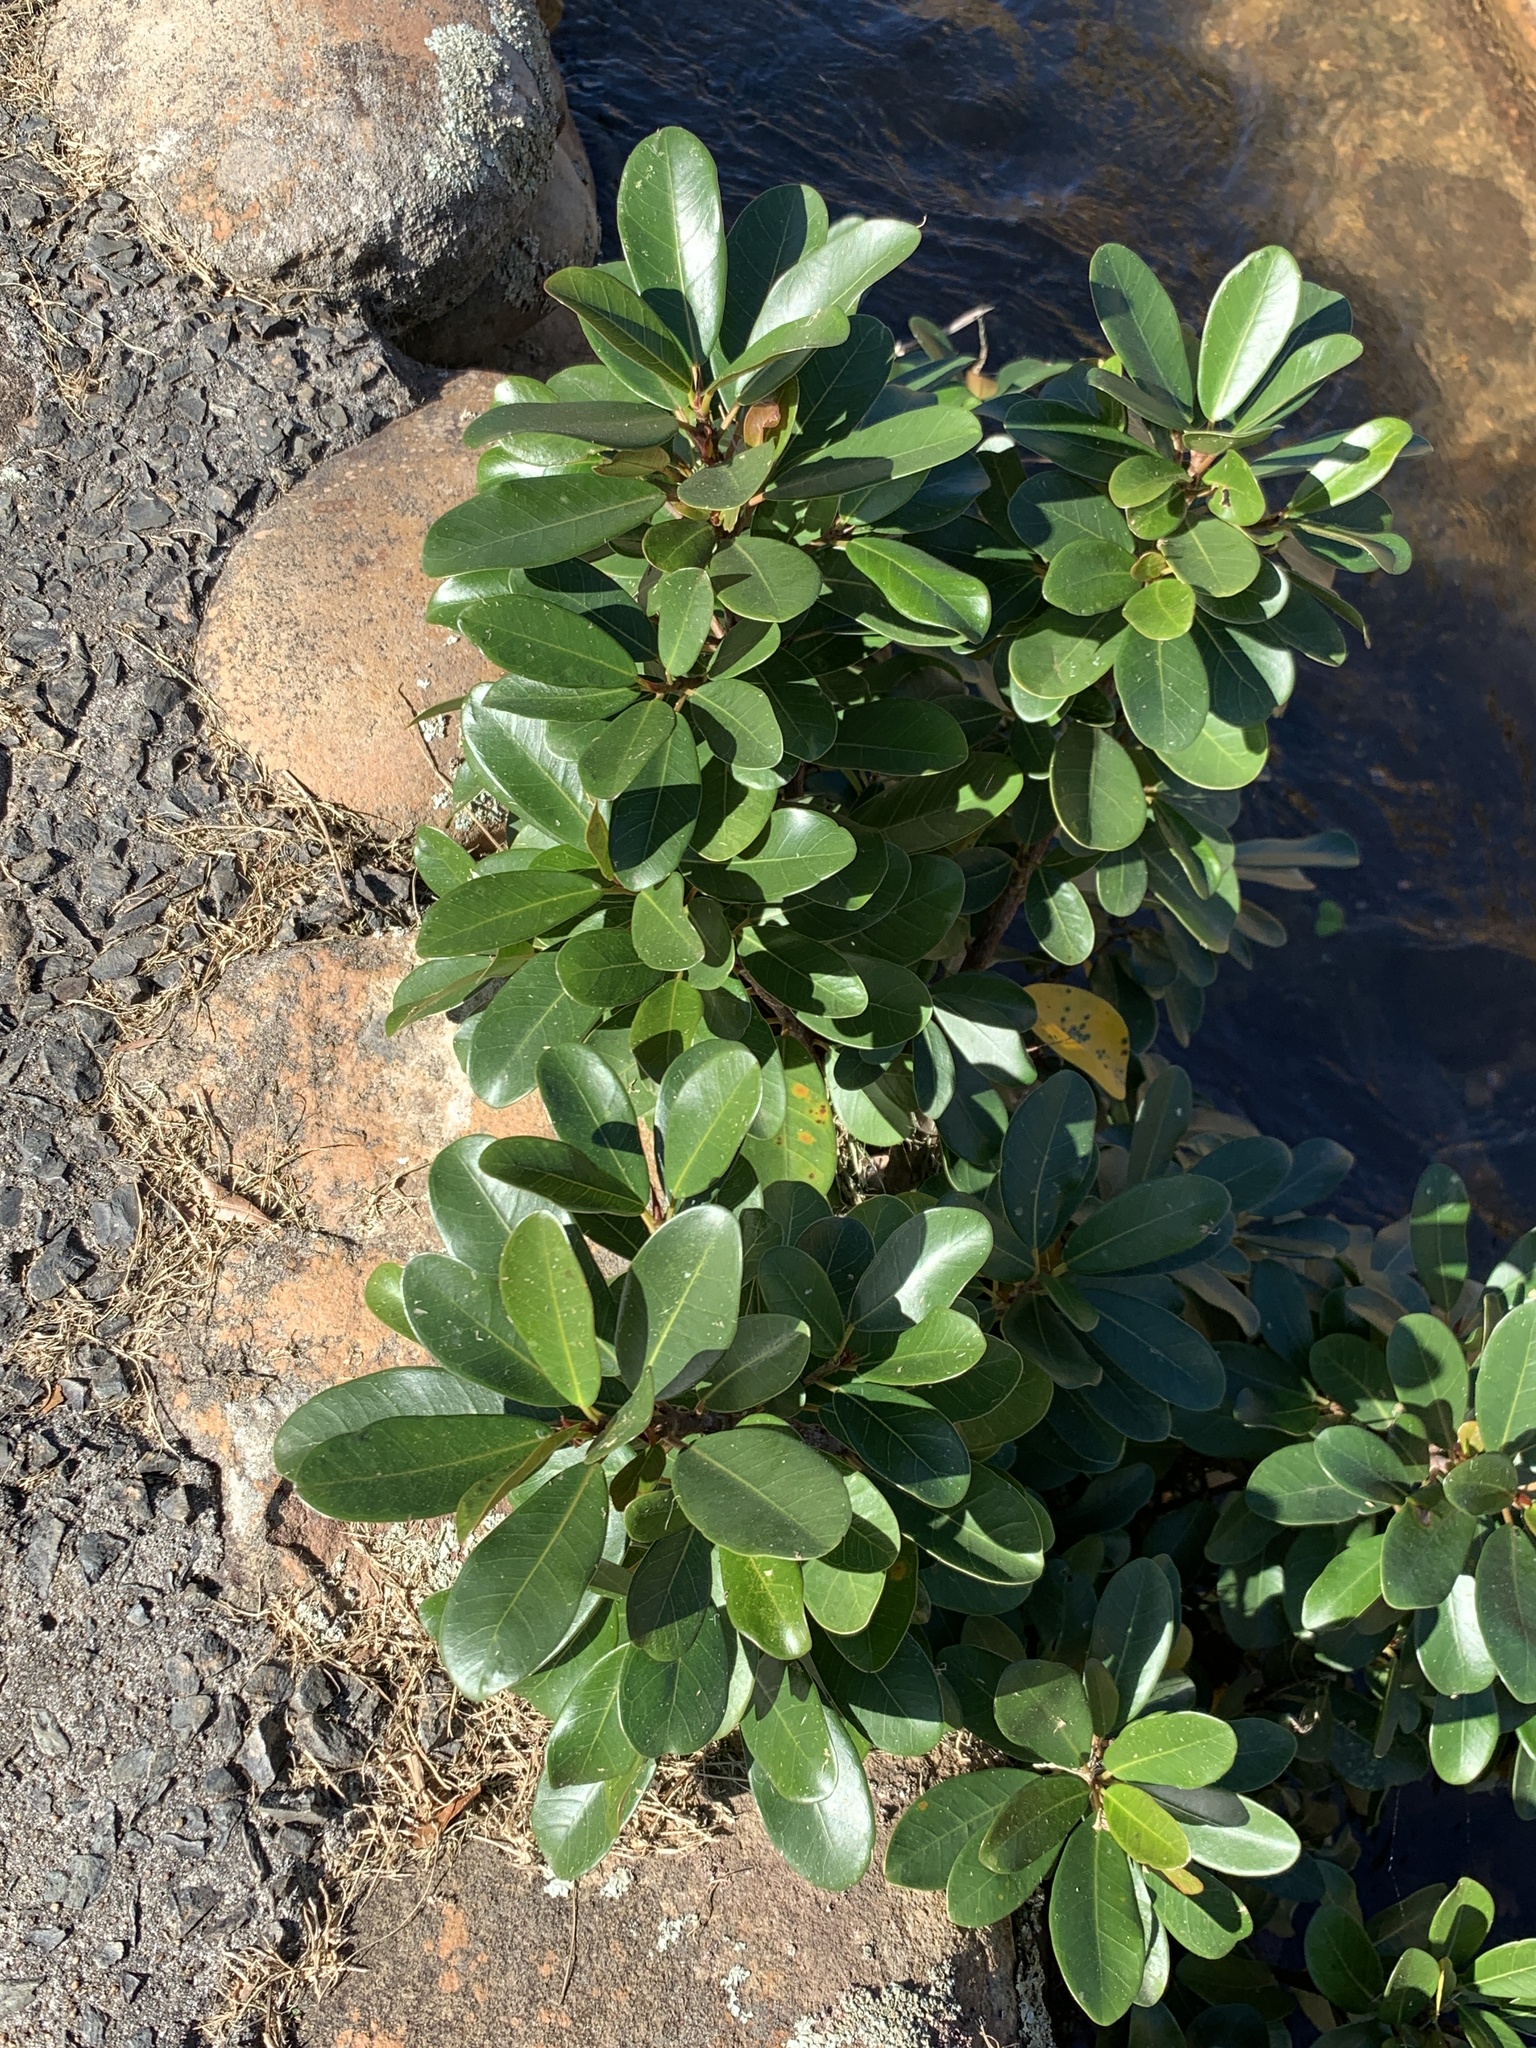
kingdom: Plantae
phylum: Tracheophyta
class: Magnoliopsida
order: Rosales
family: Moraceae
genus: Ficus
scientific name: Ficus thonningii
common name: Fig
